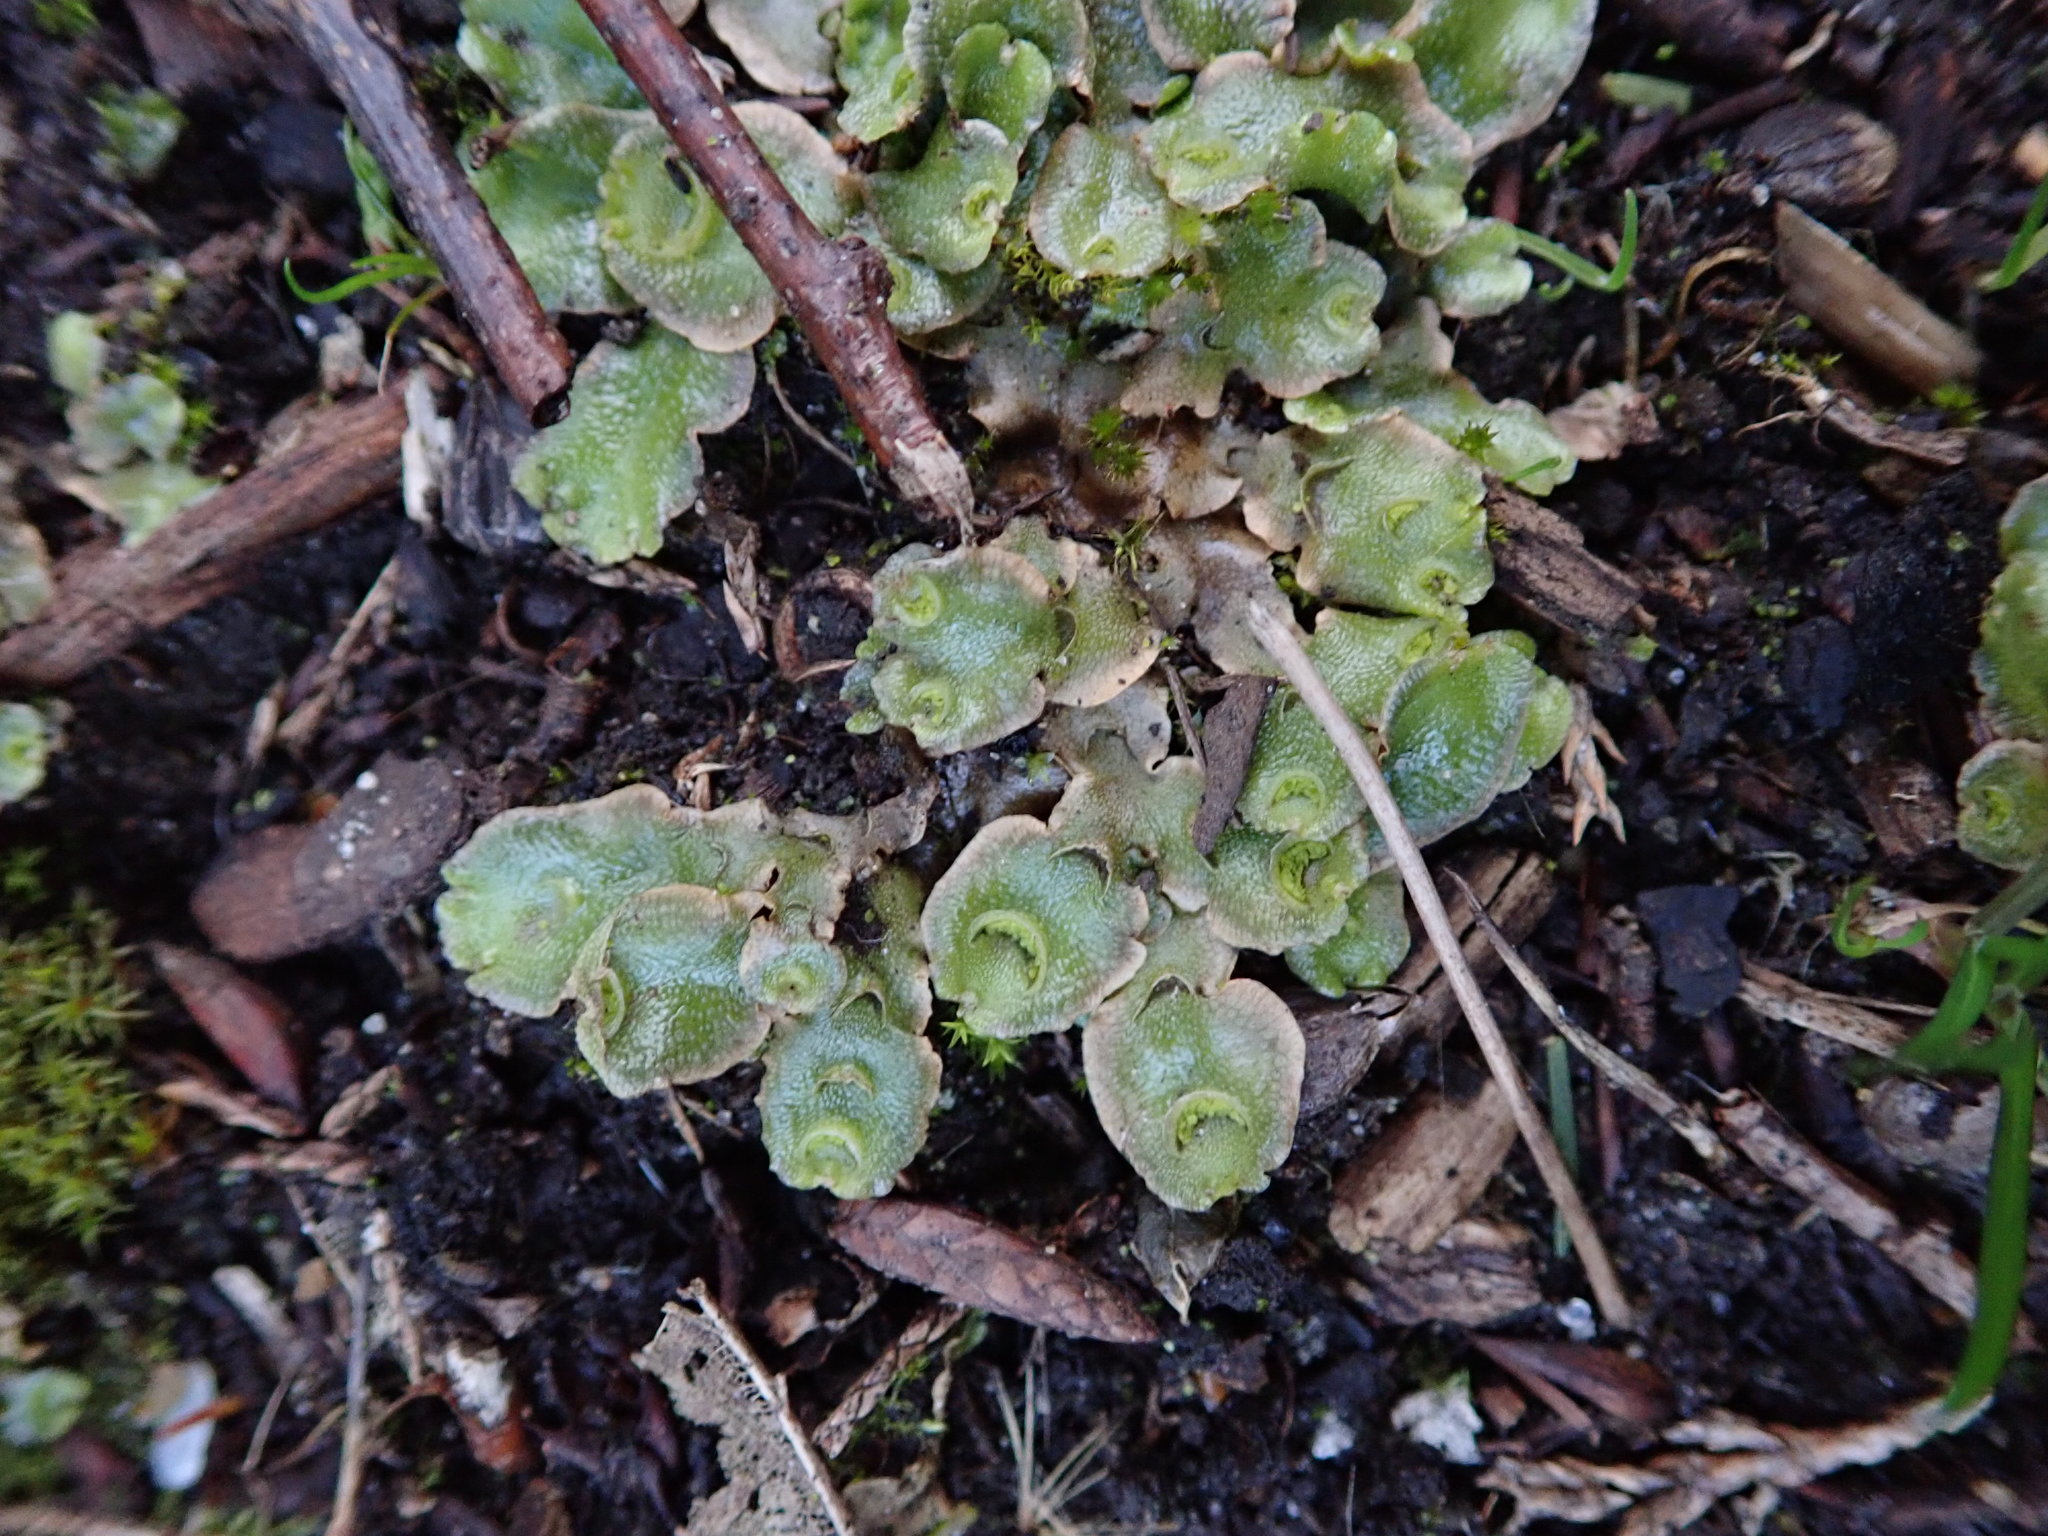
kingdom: Plantae
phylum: Marchantiophyta
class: Marchantiopsida
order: Lunulariales
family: Lunulariaceae
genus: Lunularia
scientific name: Lunularia cruciata
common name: Crescent-cup liverwort
